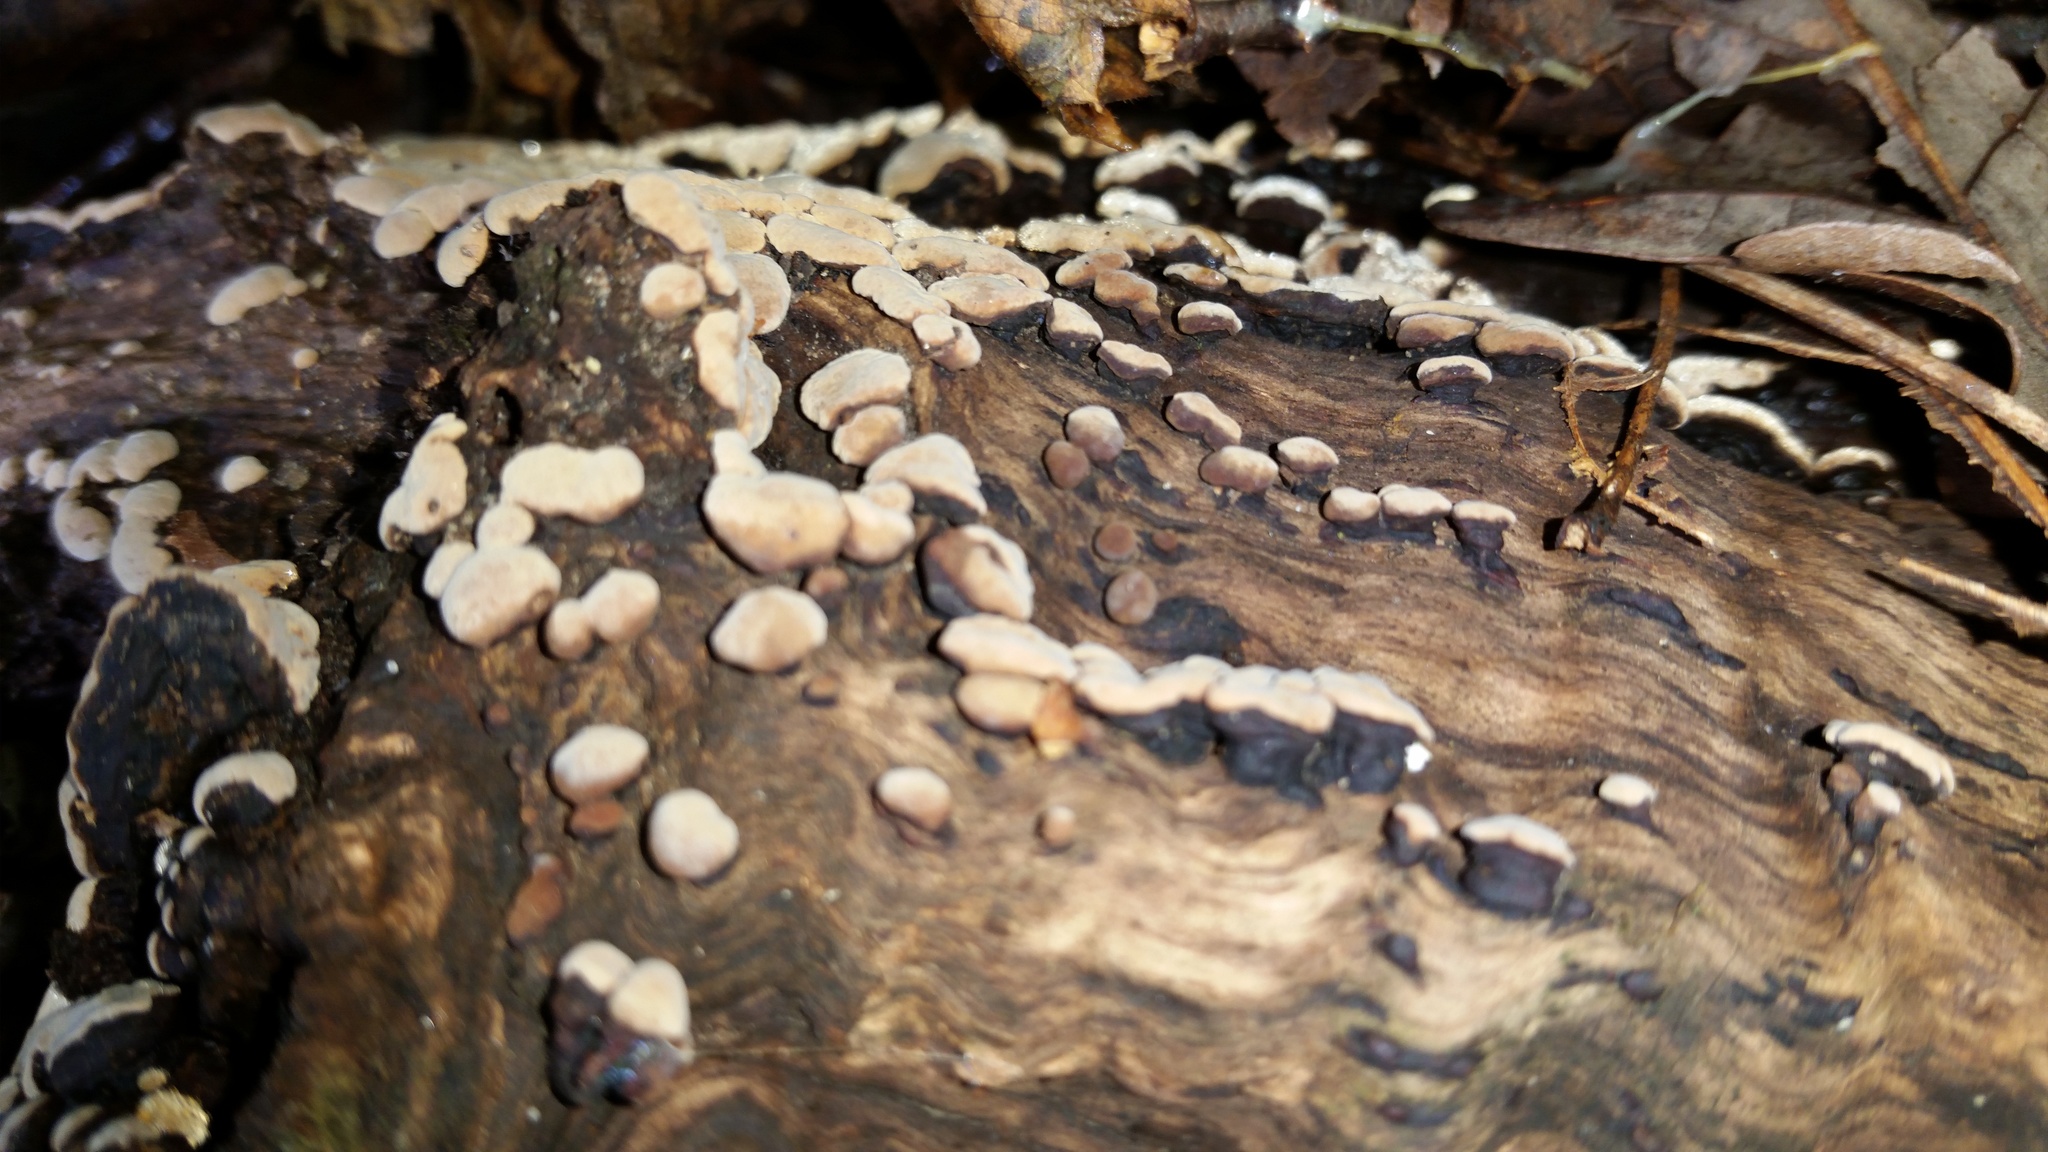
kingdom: Fungi
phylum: Basidiomycota
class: Agaricomycetes
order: Russulales
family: Stereaceae
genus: Xylobolus
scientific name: Xylobolus frustulatus
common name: Ceramic parchment
